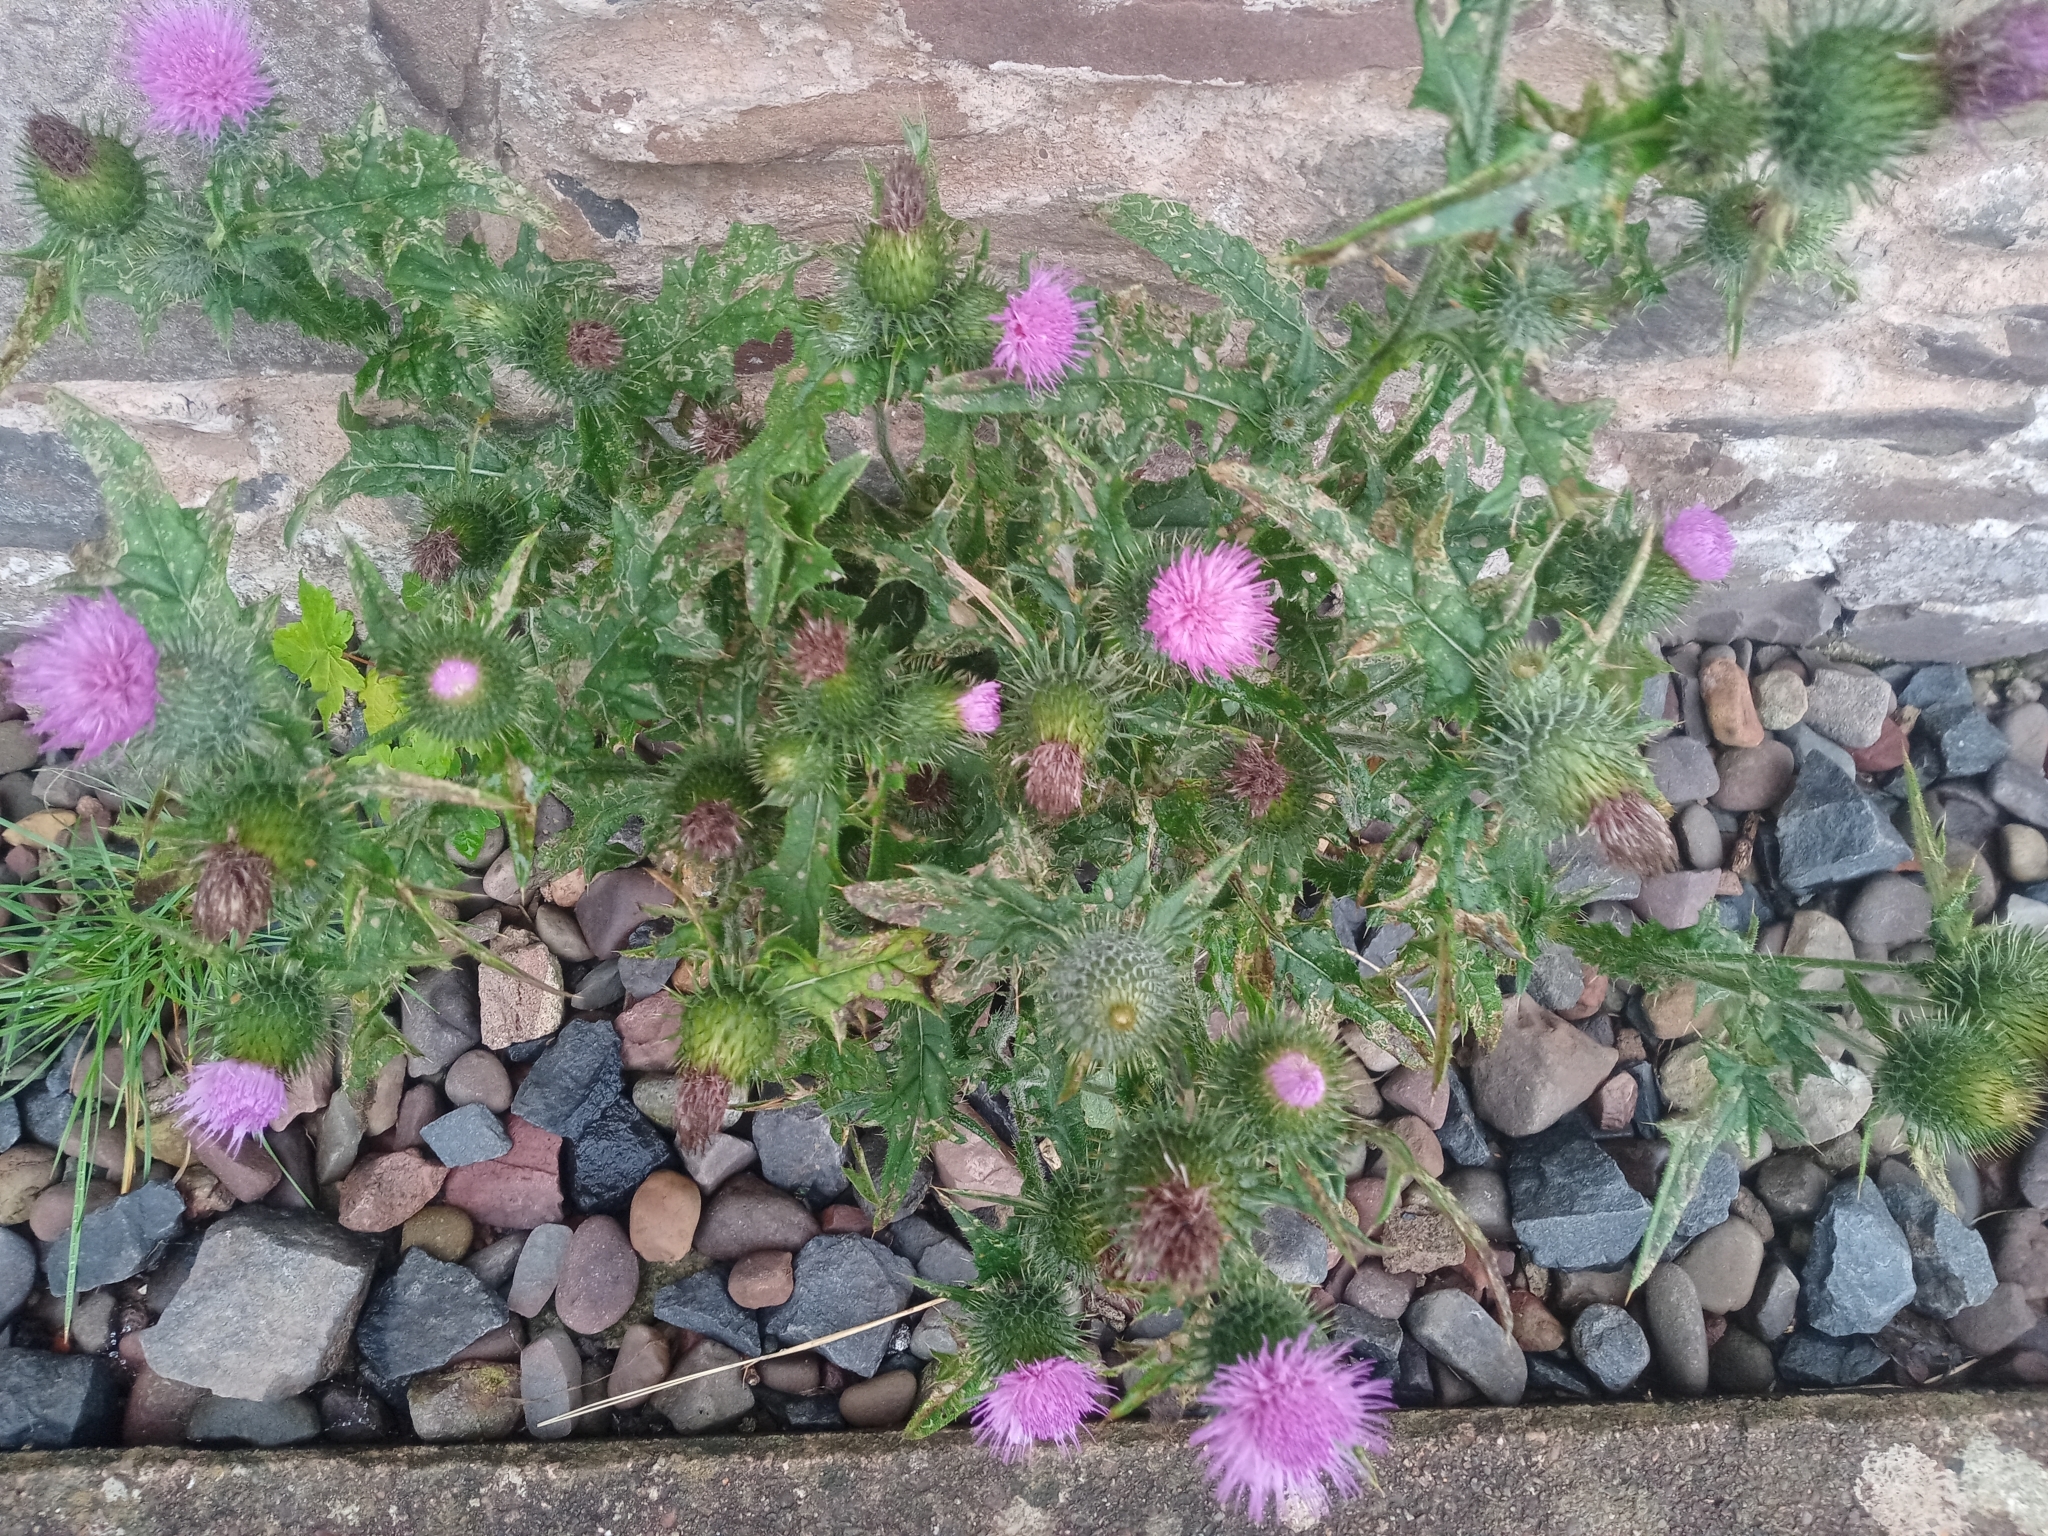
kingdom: Plantae
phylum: Tracheophyta
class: Magnoliopsida
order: Asterales
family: Asteraceae
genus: Cirsium
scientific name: Cirsium vulgare
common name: Bull thistle
